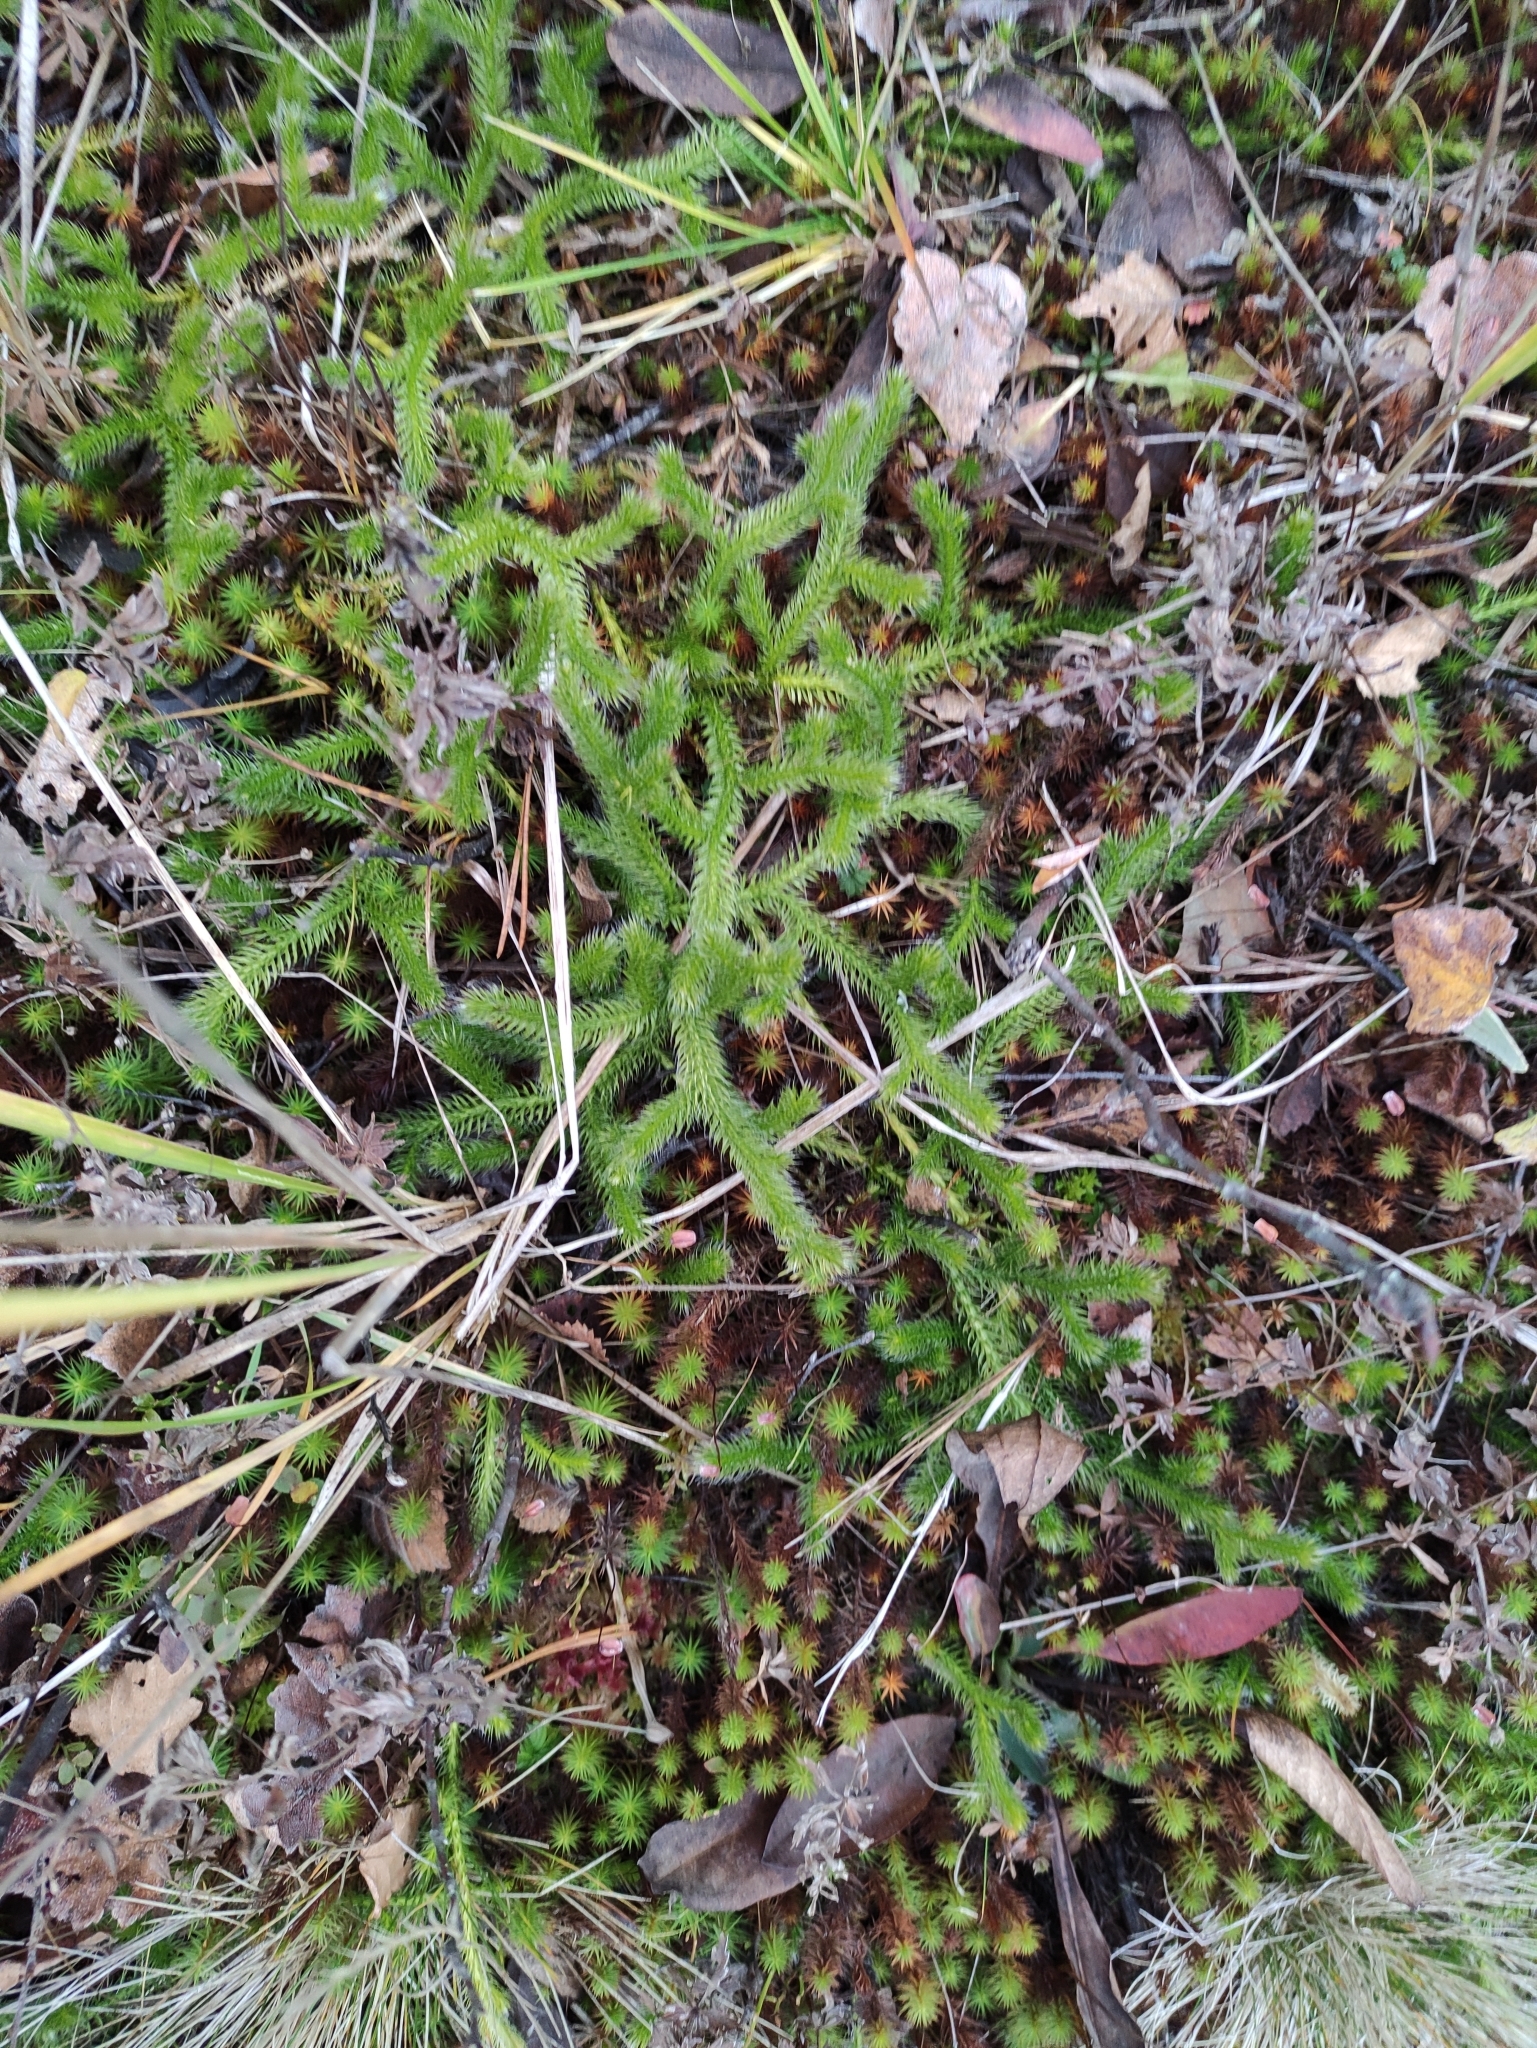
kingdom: Plantae
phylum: Tracheophyta
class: Lycopodiopsida
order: Lycopodiales
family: Lycopodiaceae
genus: Lycopodium
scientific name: Lycopodium clavatum
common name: Stag's-horn clubmoss
